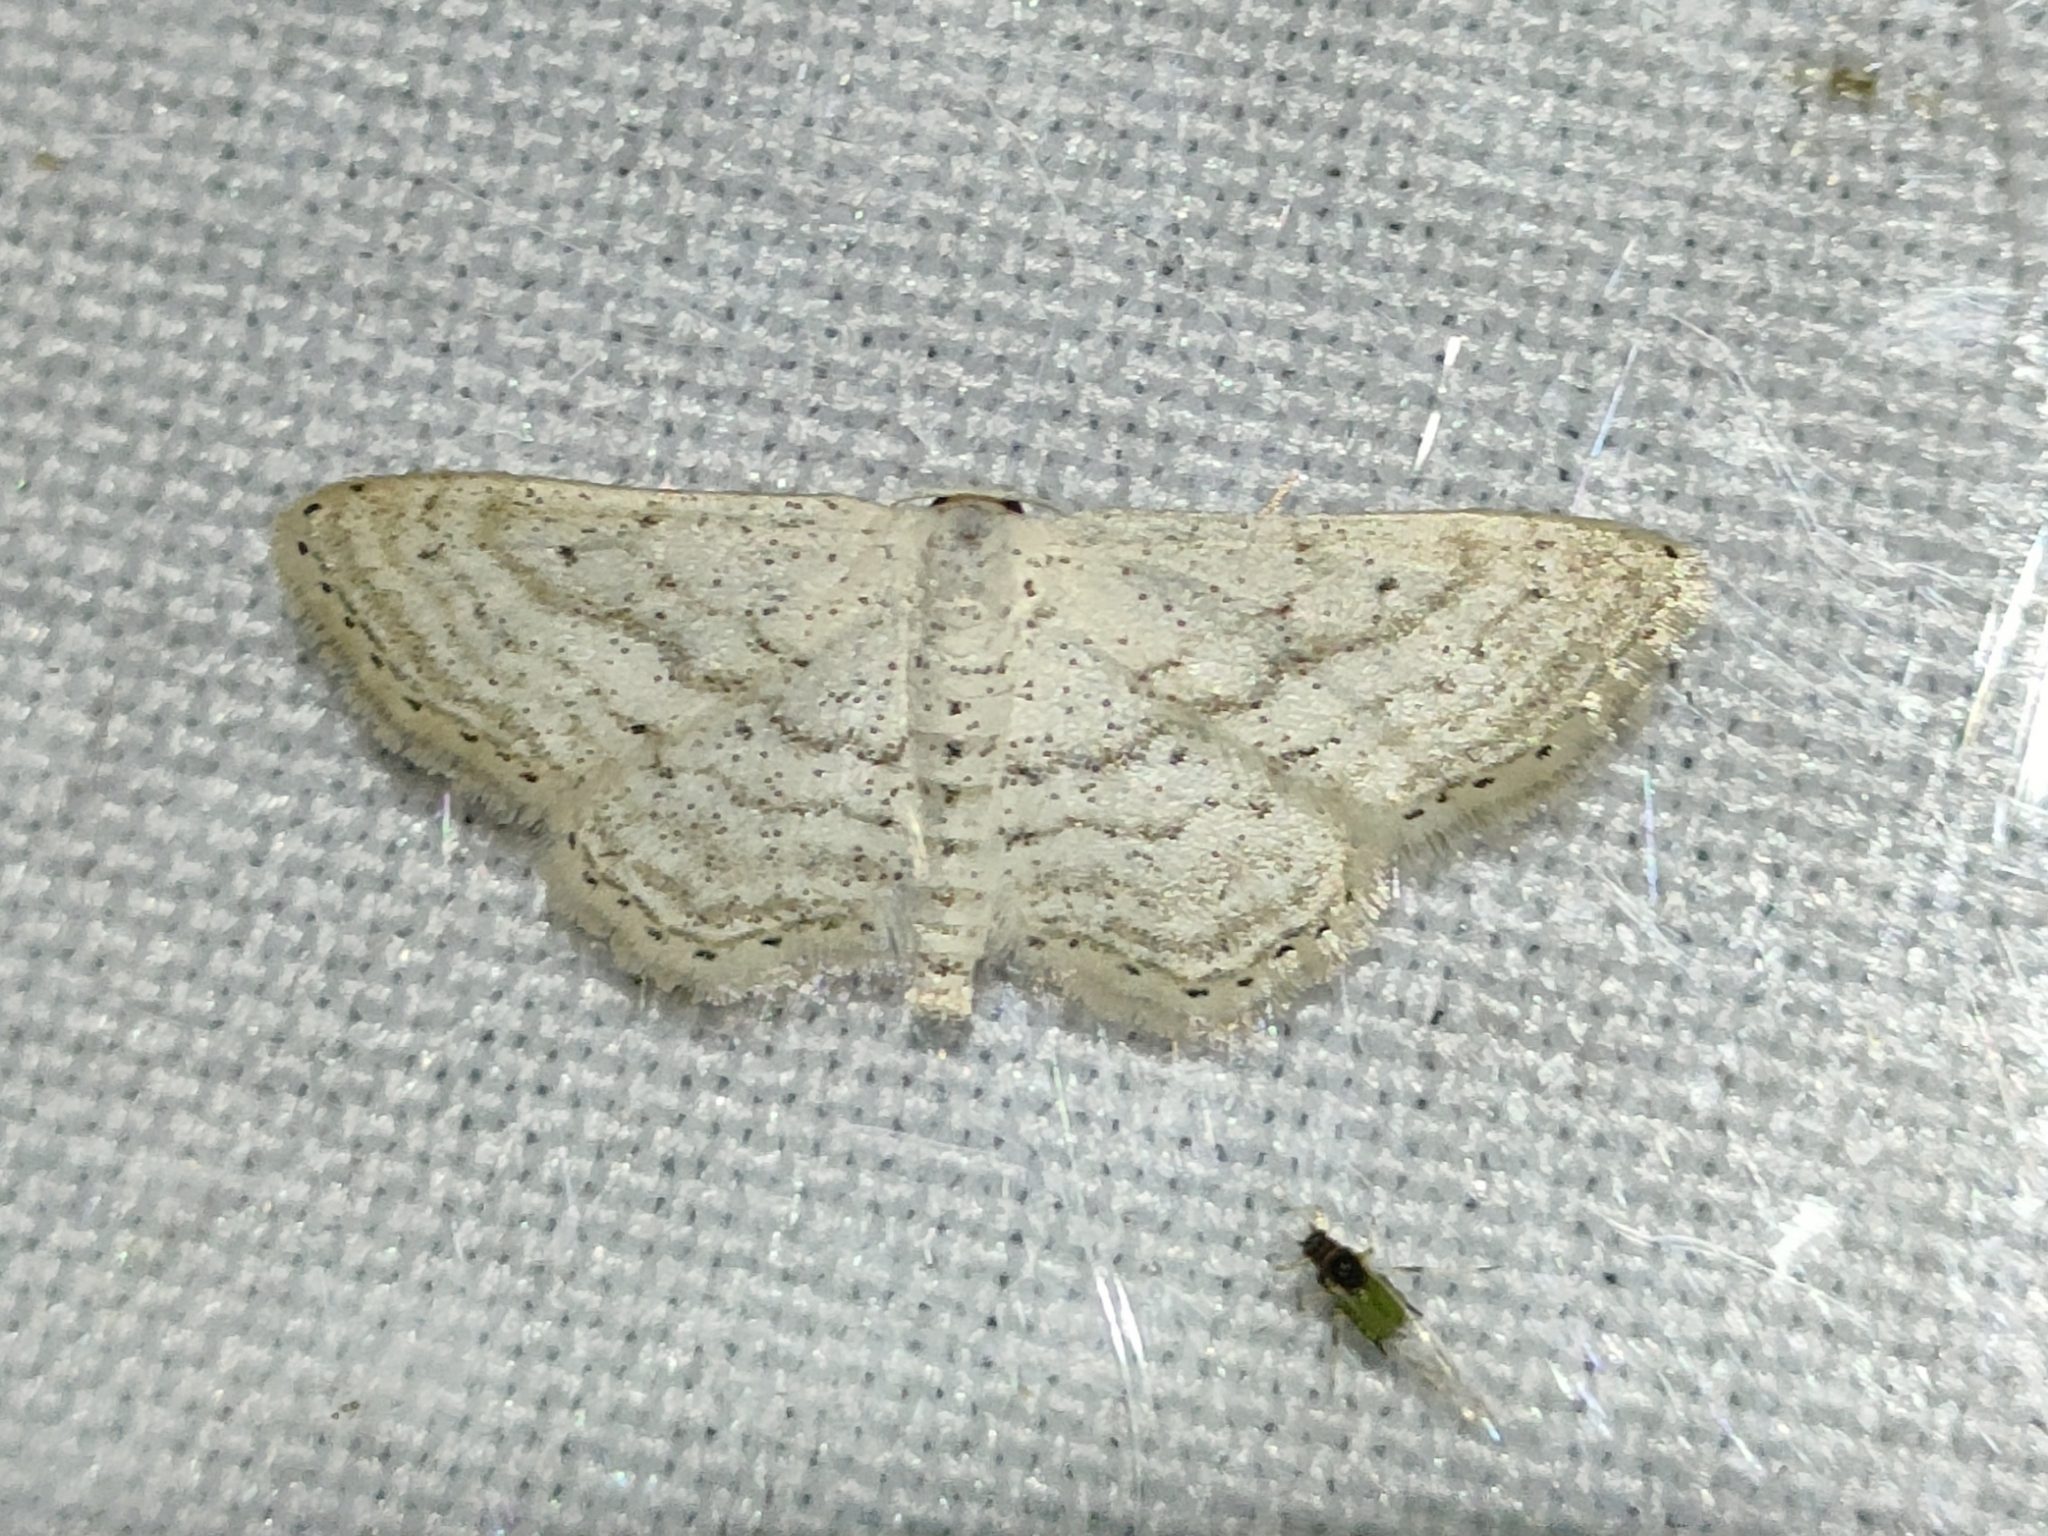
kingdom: Animalia
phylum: Arthropoda
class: Insecta
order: Lepidoptera
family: Geometridae
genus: Idaea
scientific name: Idaea elongaria
